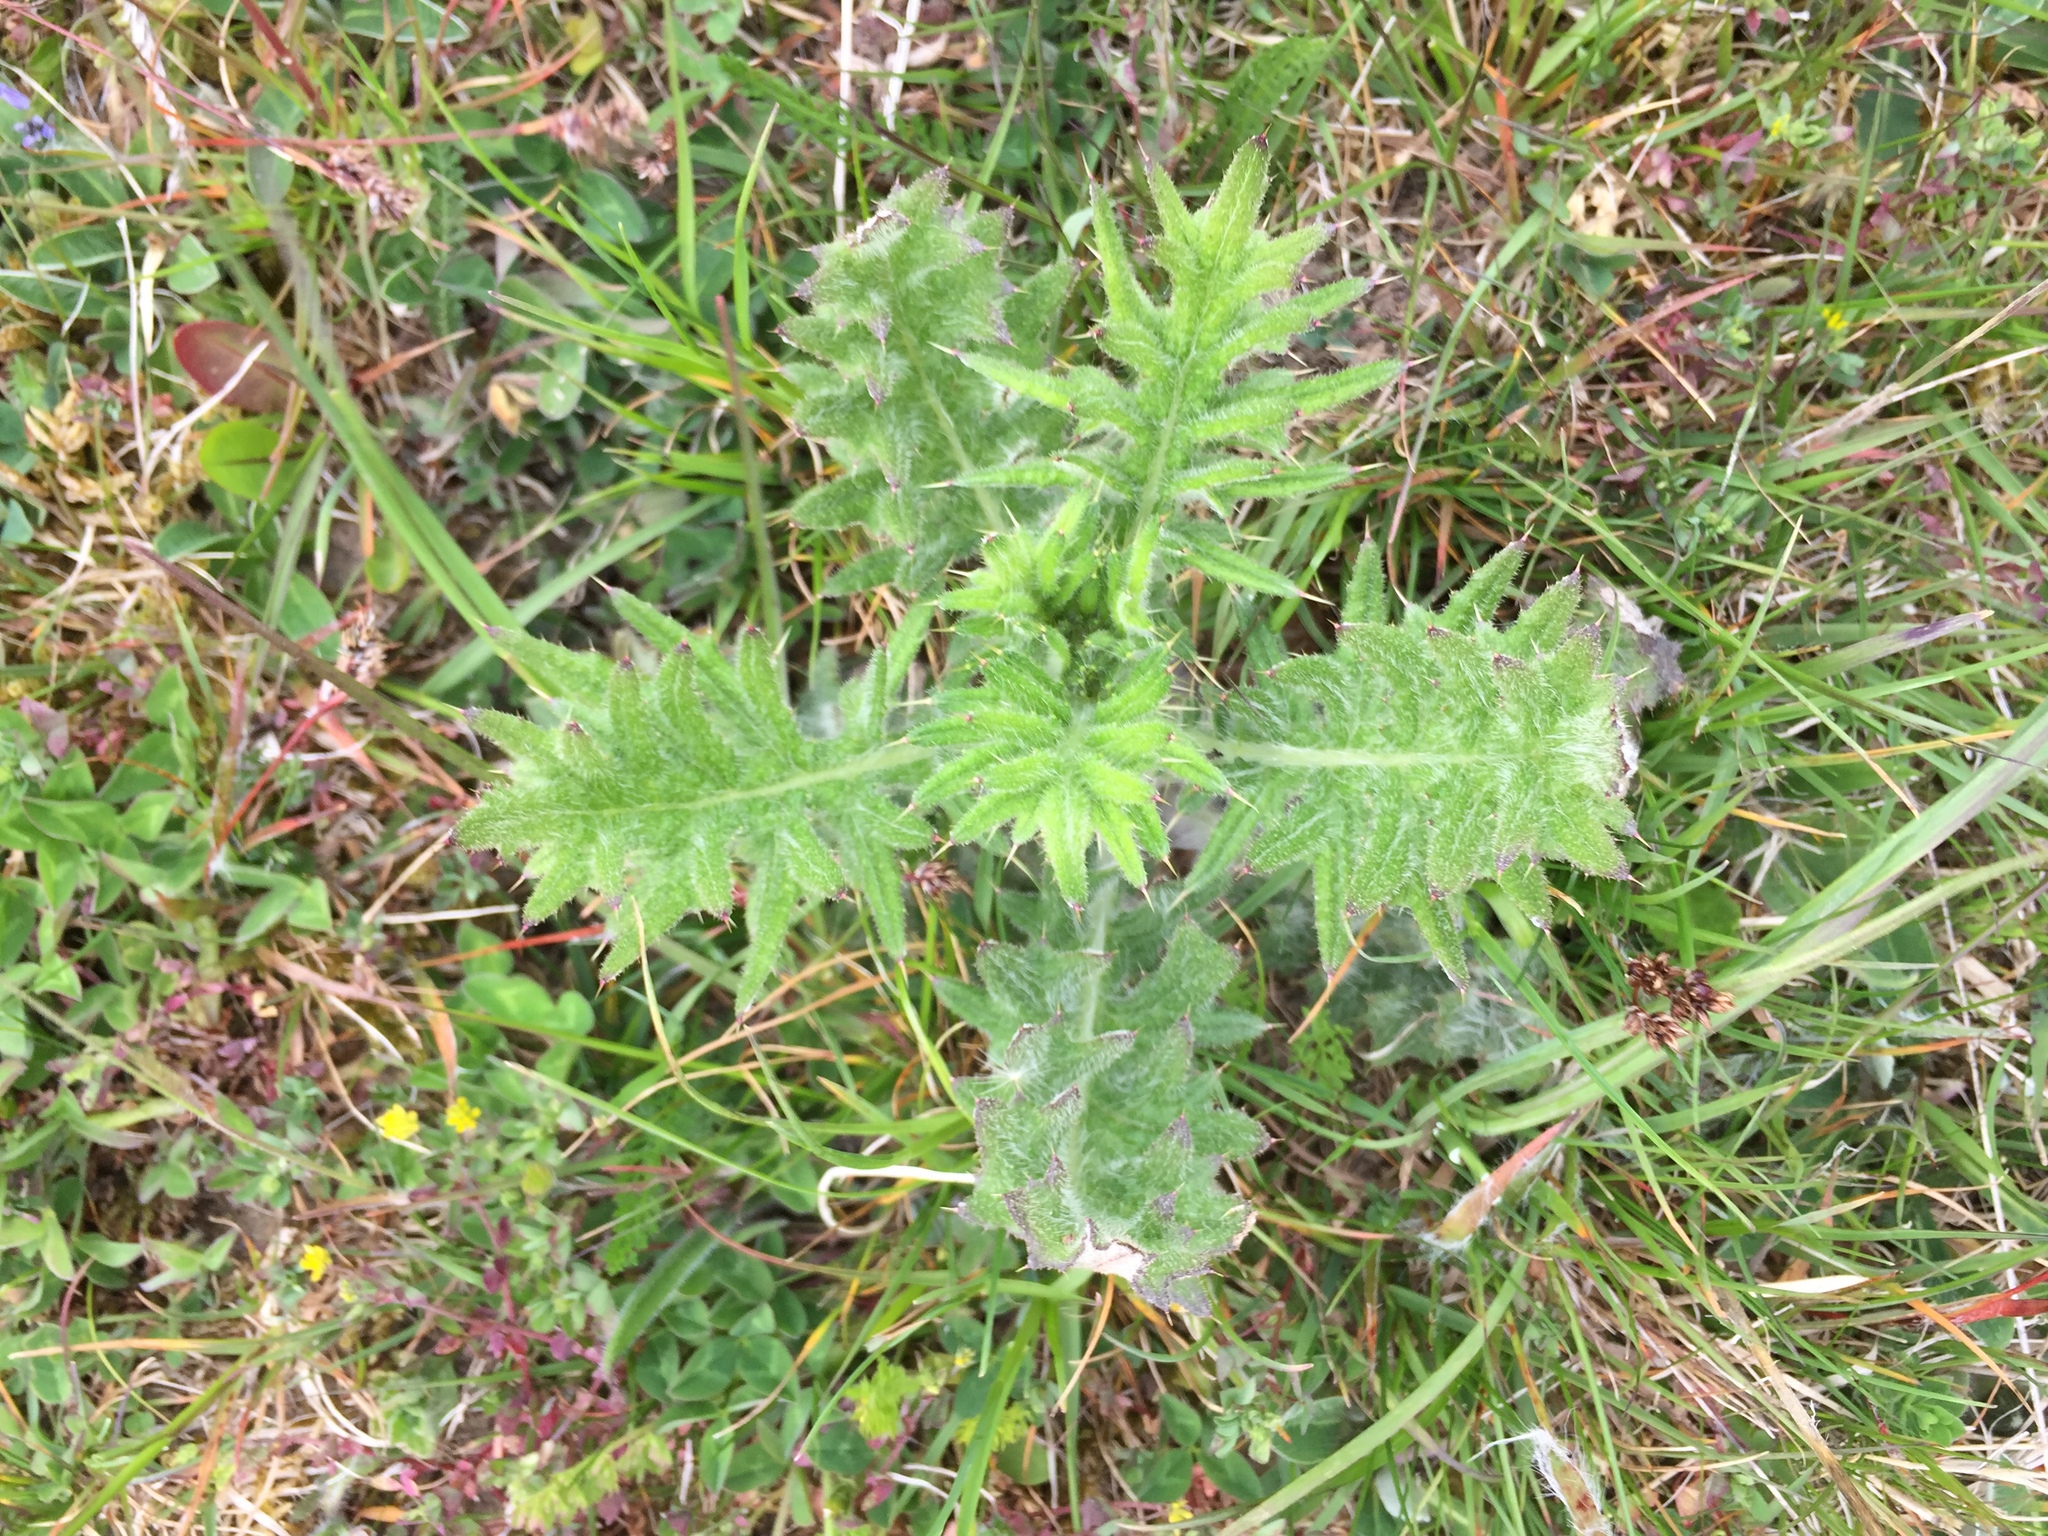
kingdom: Plantae
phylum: Tracheophyta
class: Magnoliopsida
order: Asterales
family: Asteraceae
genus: Cirsium
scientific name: Cirsium vulgare
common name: Bull thistle
